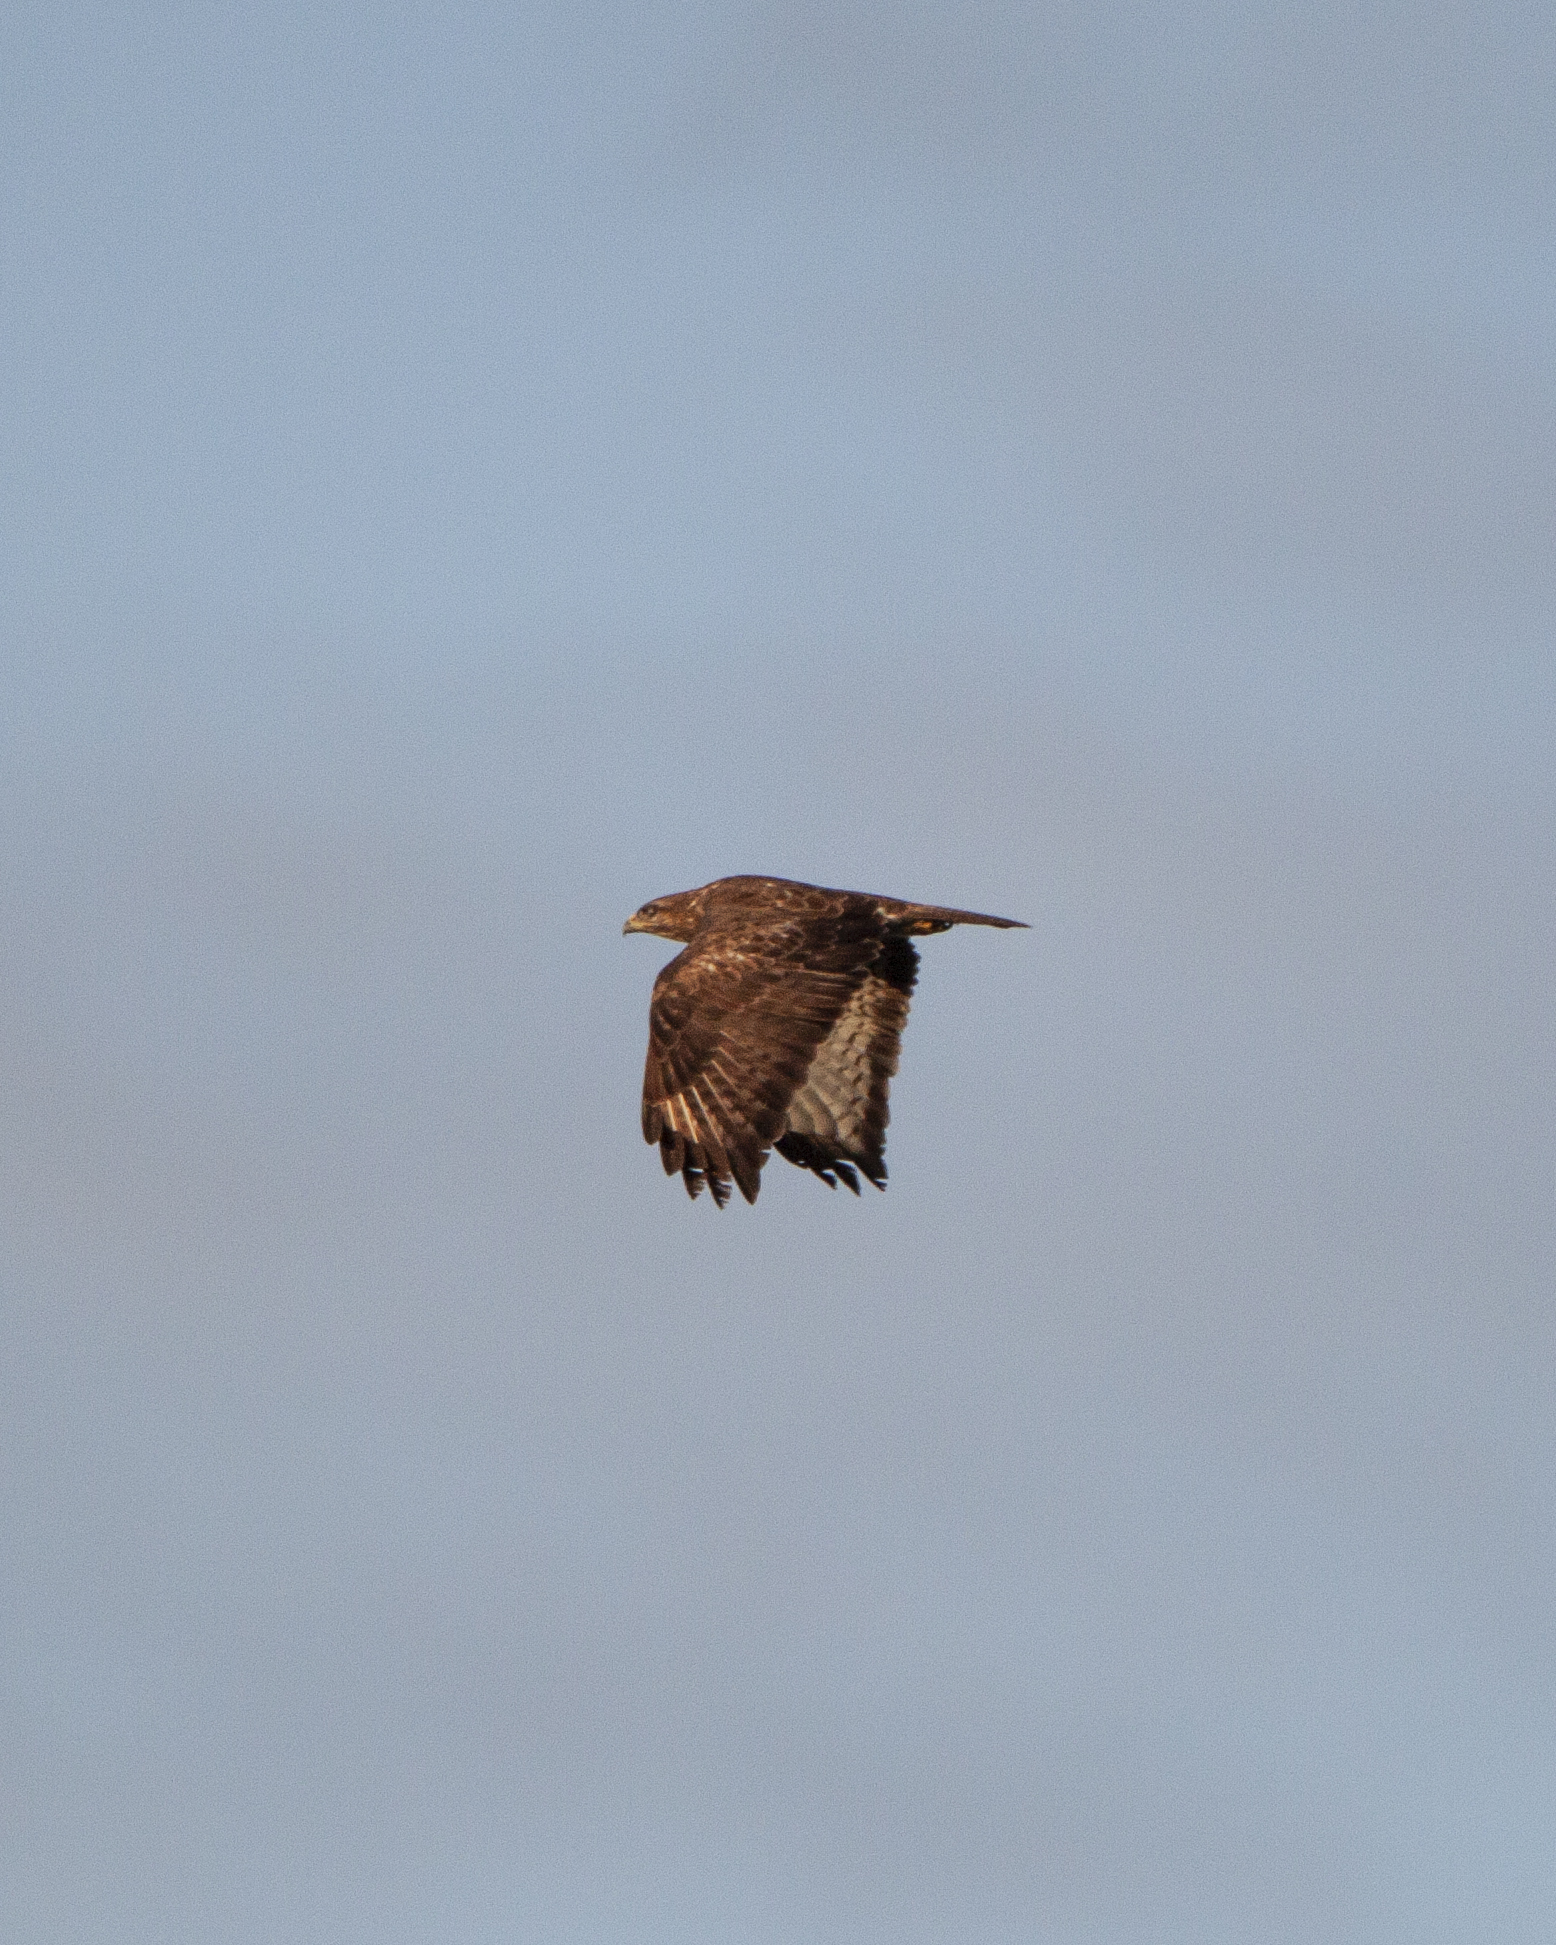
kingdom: Animalia
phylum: Chordata
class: Aves
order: Accipitriformes
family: Accipitridae
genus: Buteo
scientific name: Buteo buteo
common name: Common buzzard
